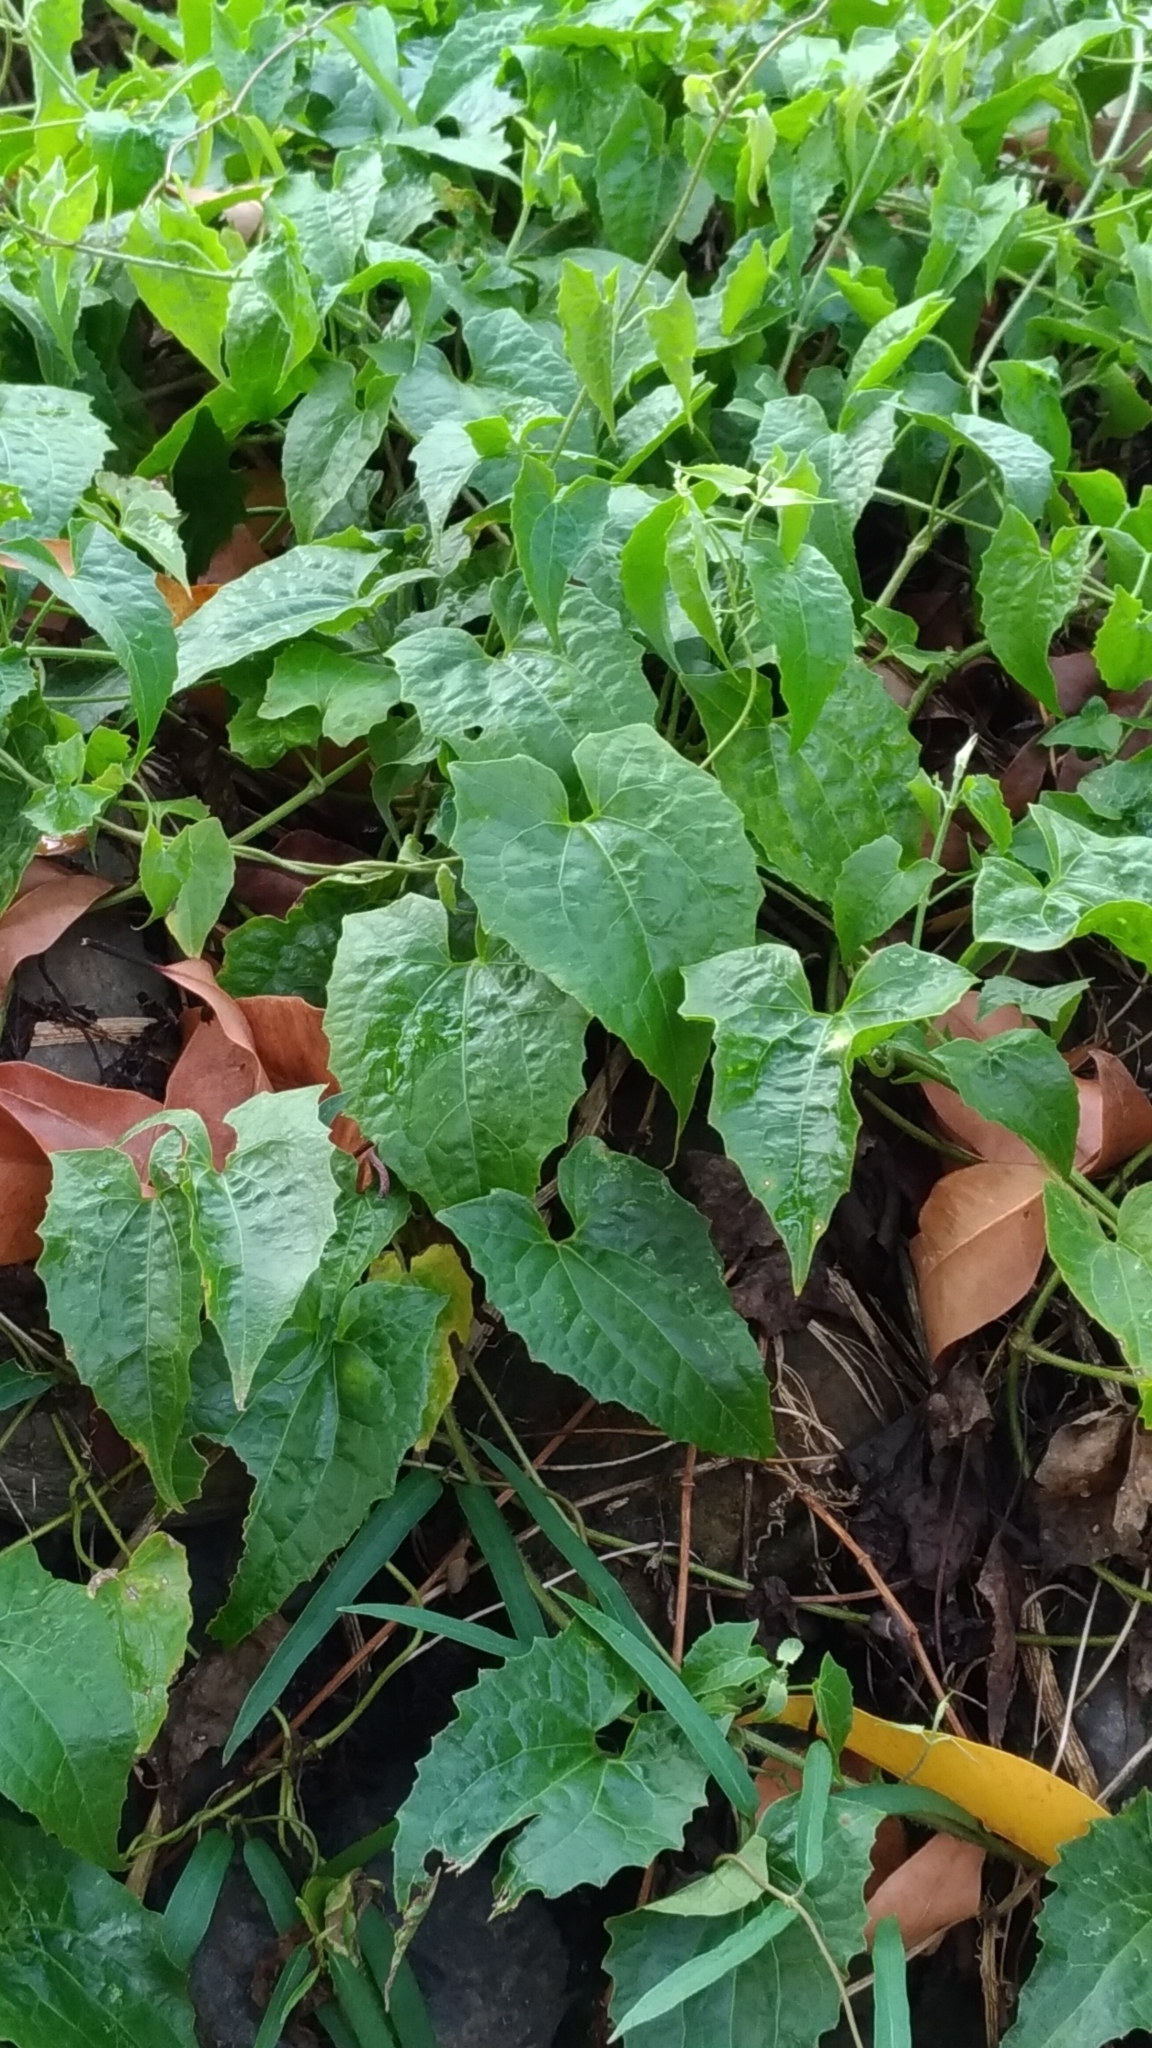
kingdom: Plantae
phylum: Tracheophyta
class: Magnoliopsida
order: Asterales
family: Asteraceae
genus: Mikania
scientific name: Mikania micrantha
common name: Mile-a-minute
